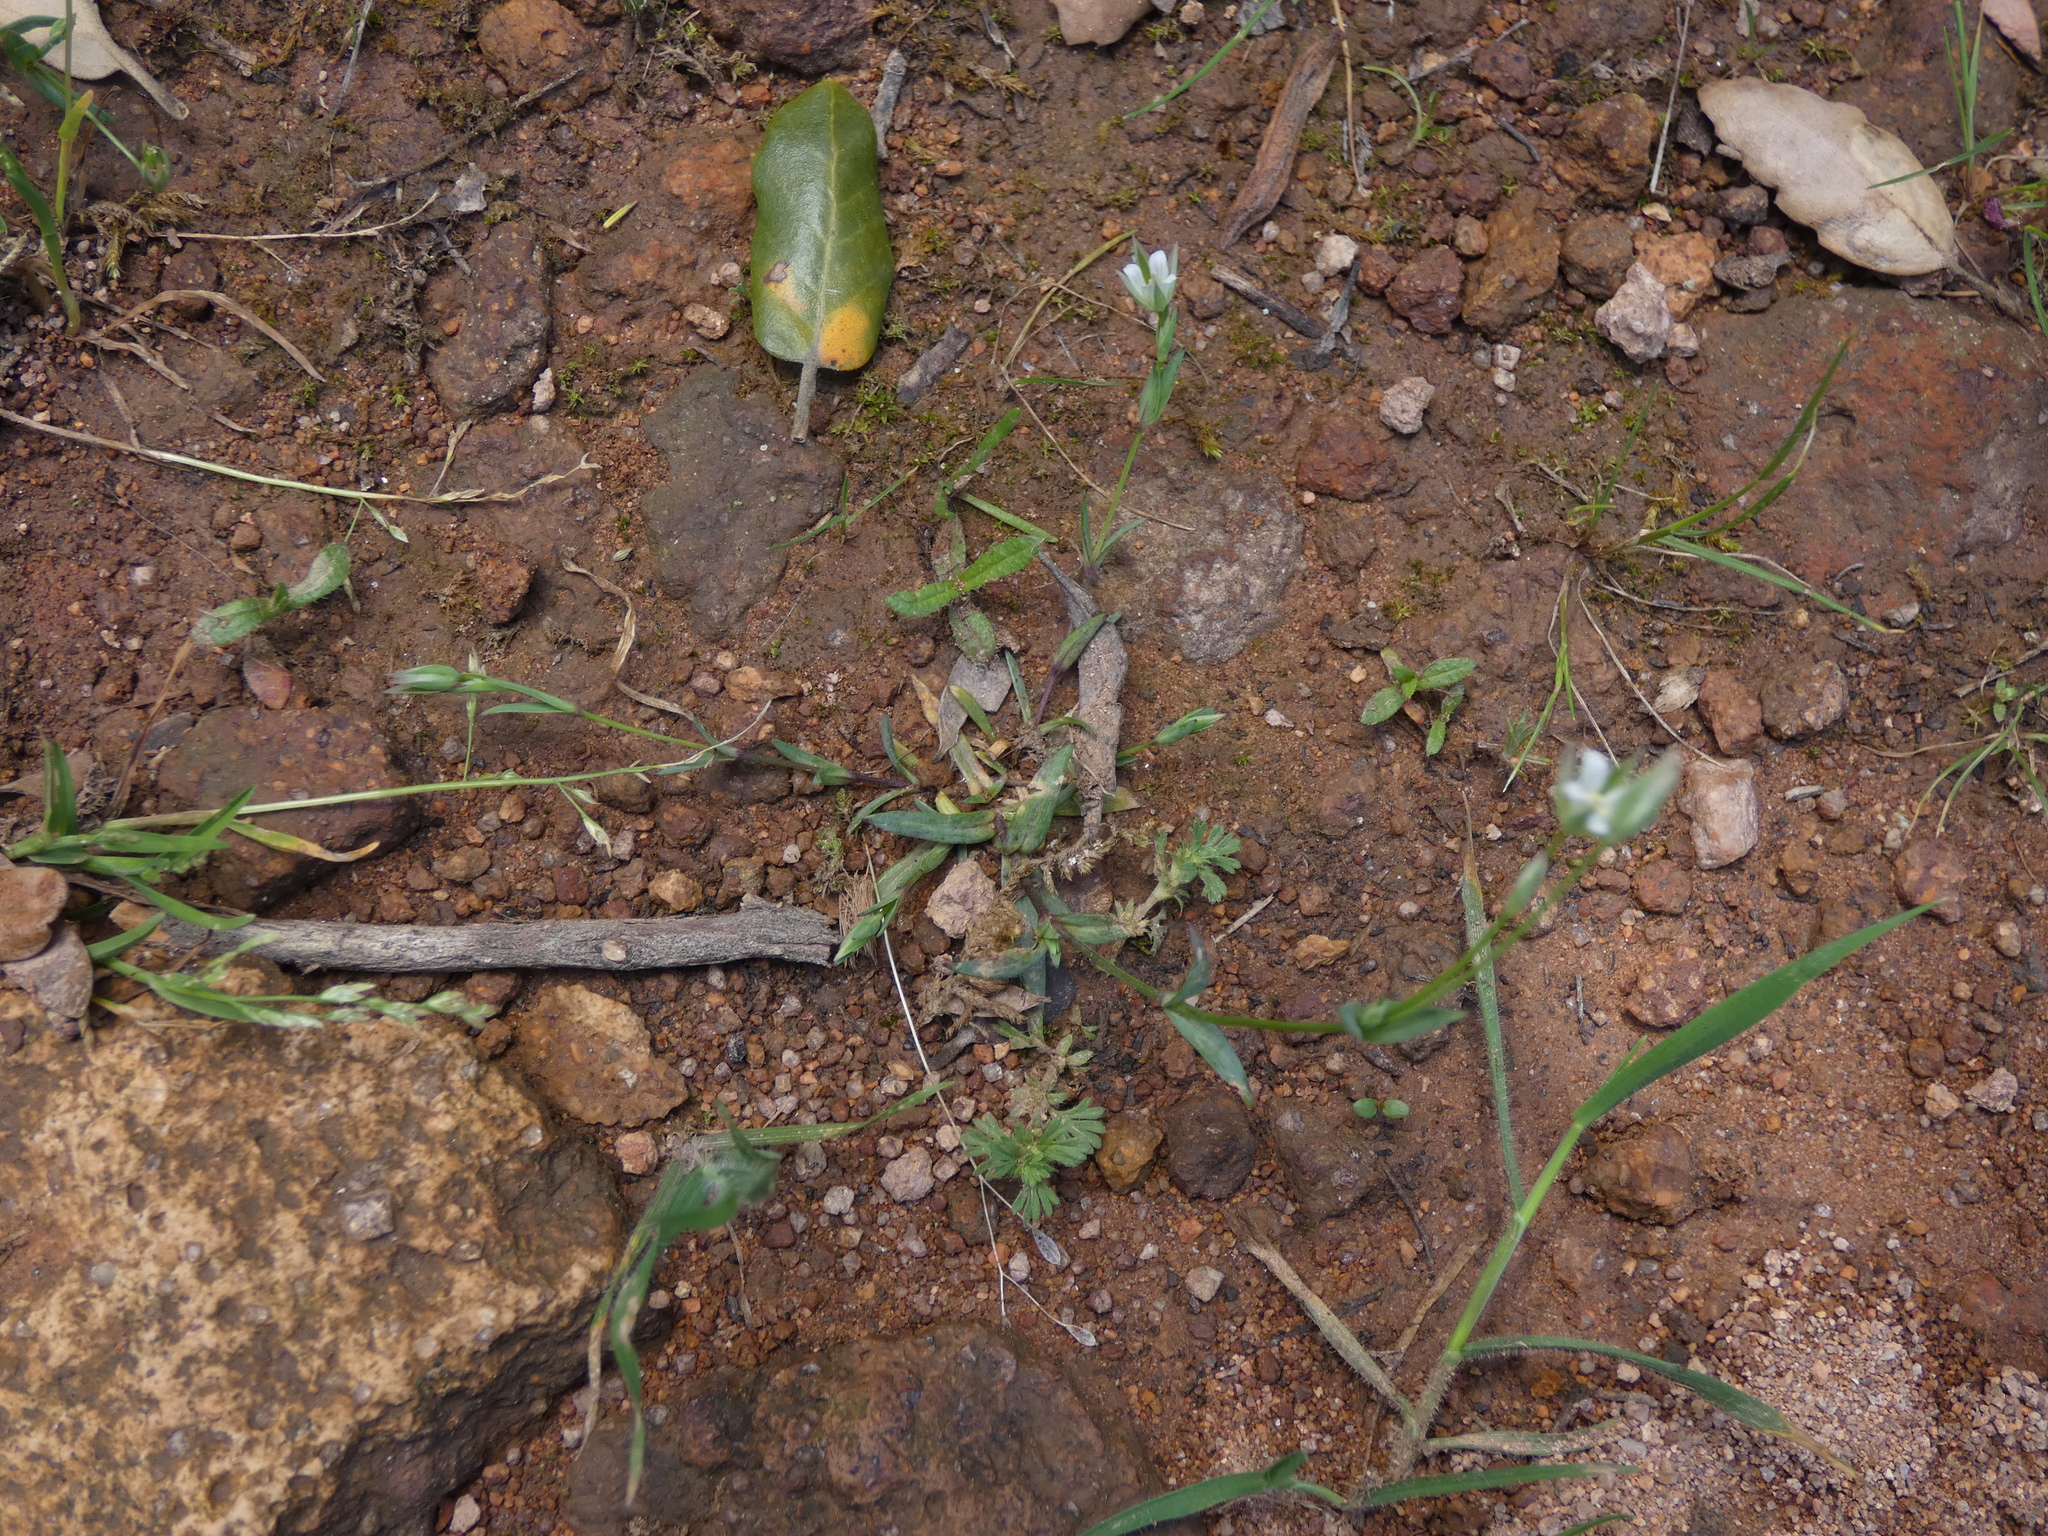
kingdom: Plantae
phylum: Tracheophyta
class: Magnoliopsida
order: Caryophyllales
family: Caryophyllaceae
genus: Moenchia
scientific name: Moenchia erecta
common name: Upright chickweed
